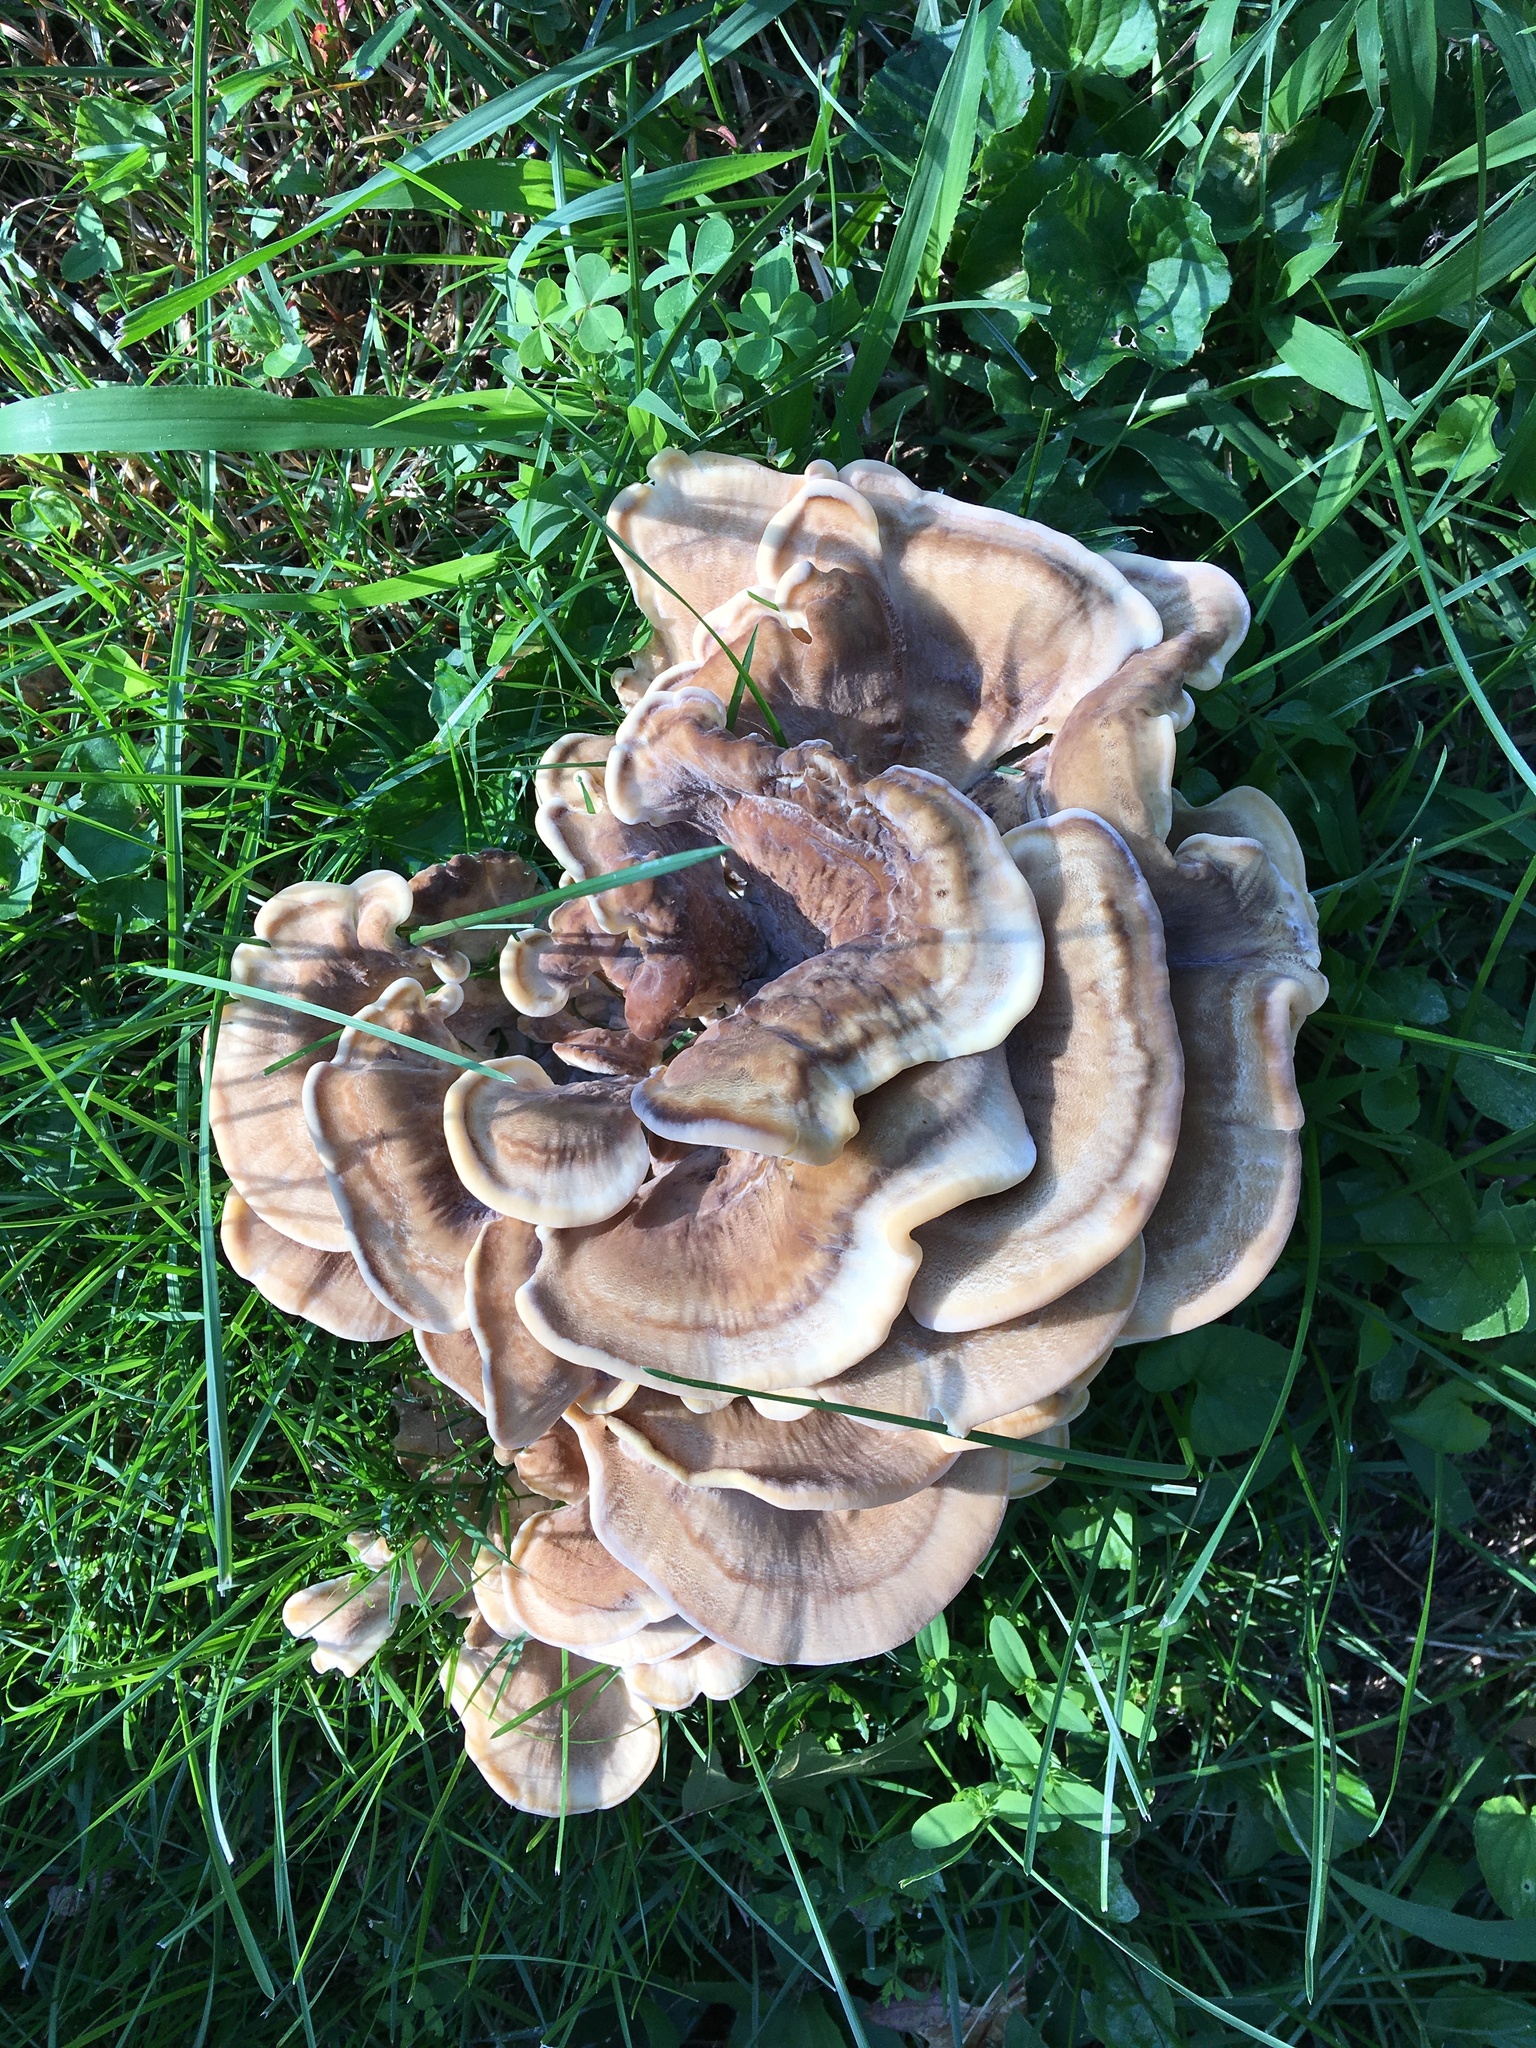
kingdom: Fungi
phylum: Basidiomycota
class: Agaricomycetes
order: Polyporales
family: Meripilaceae
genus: Meripilus
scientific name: Meripilus sumstinei
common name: Black-staining polypore
